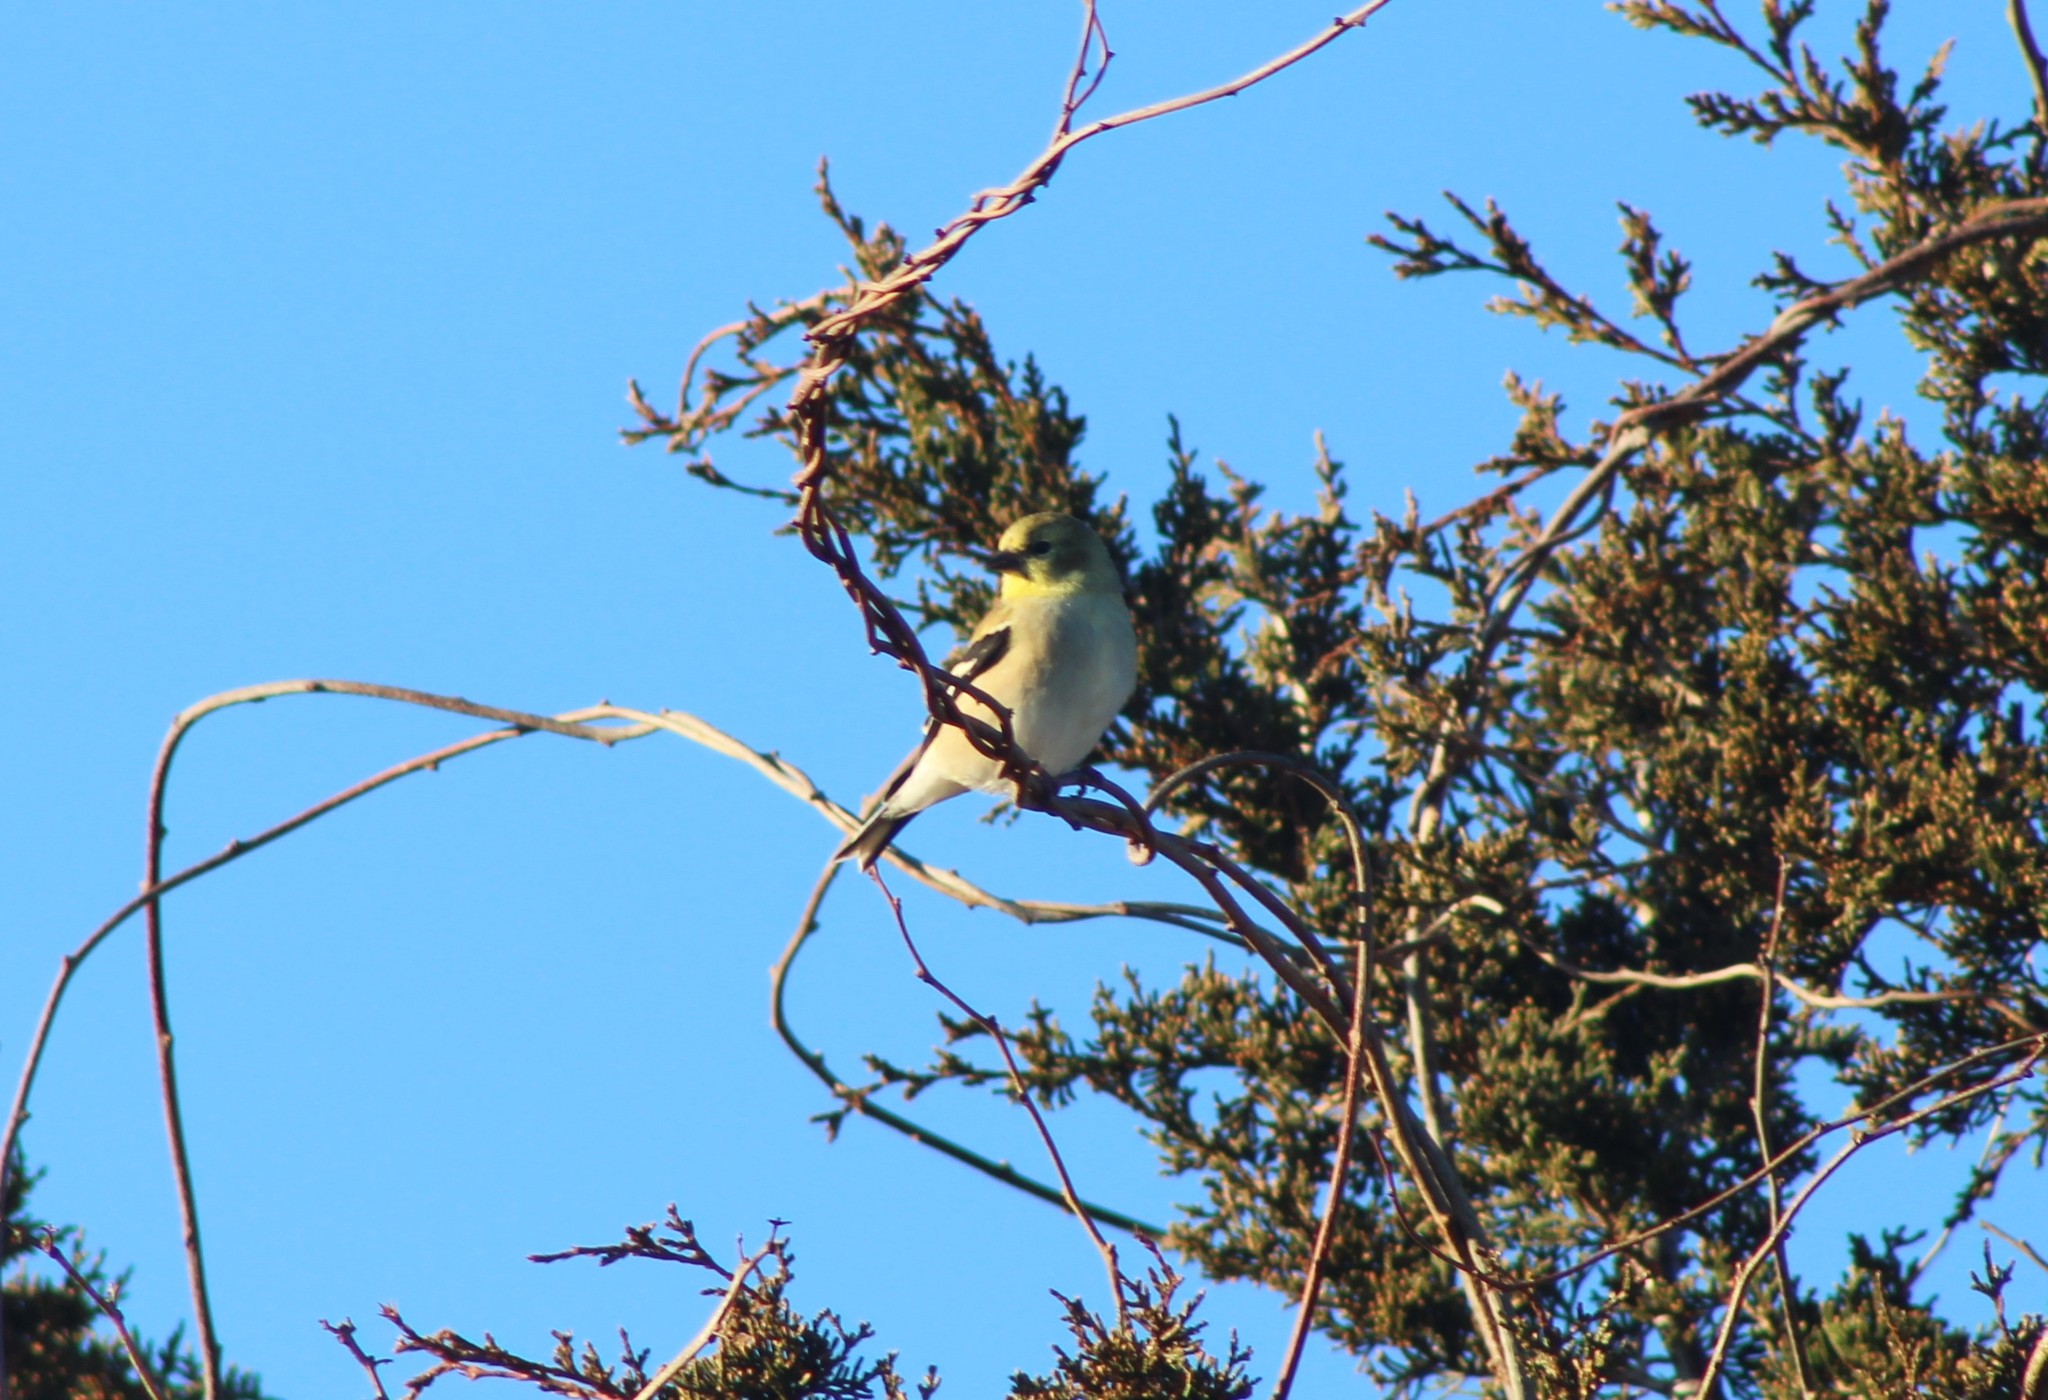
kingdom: Animalia
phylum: Chordata
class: Aves
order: Passeriformes
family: Fringillidae
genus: Spinus
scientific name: Spinus tristis
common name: American goldfinch
